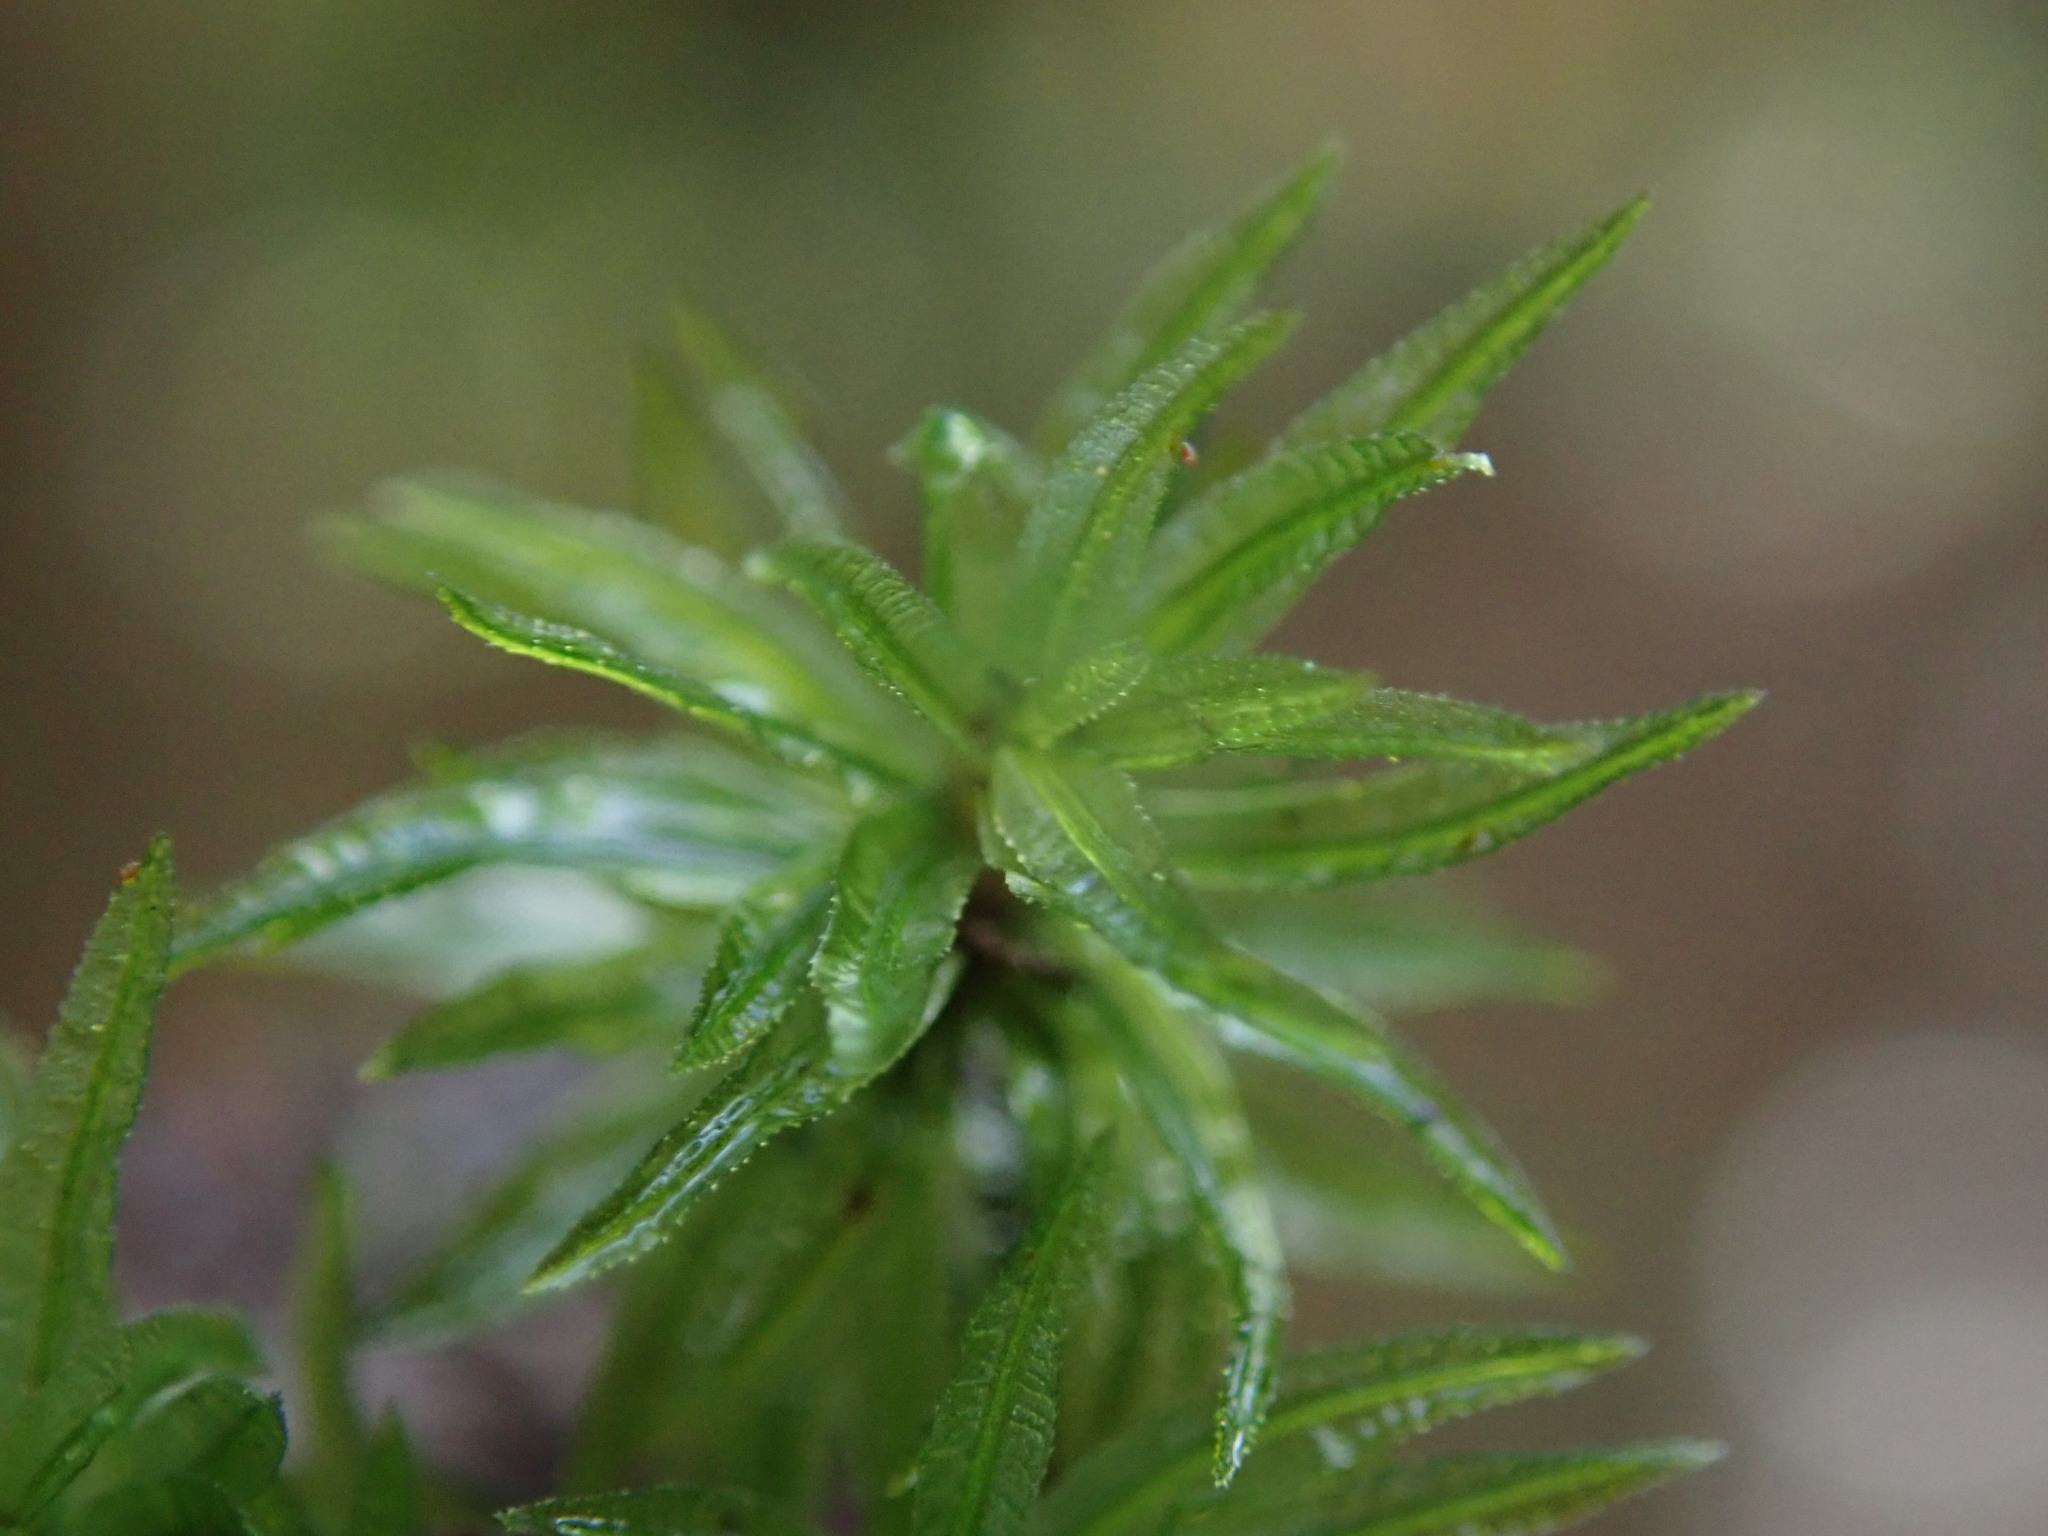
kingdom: Plantae
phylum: Bryophyta
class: Polytrichopsida
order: Polytrichales
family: Polytrichaceae
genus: Atrichum
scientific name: Atrichum undulatum
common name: Common smoothcap
